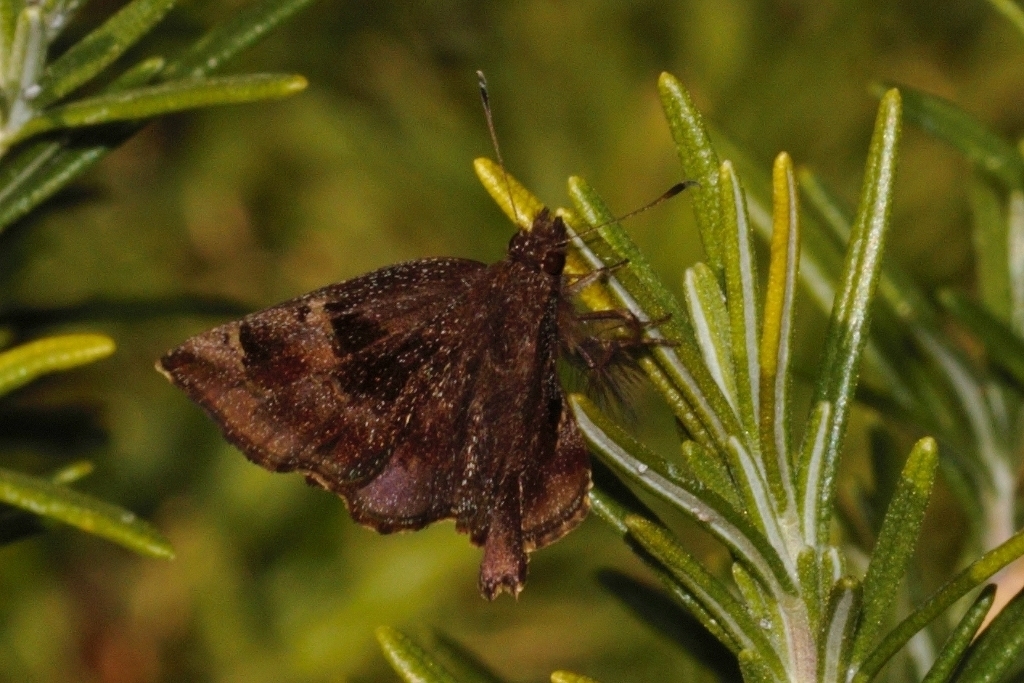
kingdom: Animalia
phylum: Arthropoda
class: Insecta
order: Lepidoptera
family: Hesperiidae
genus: Eretis
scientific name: Eretis umbra
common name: Small marbled elf
